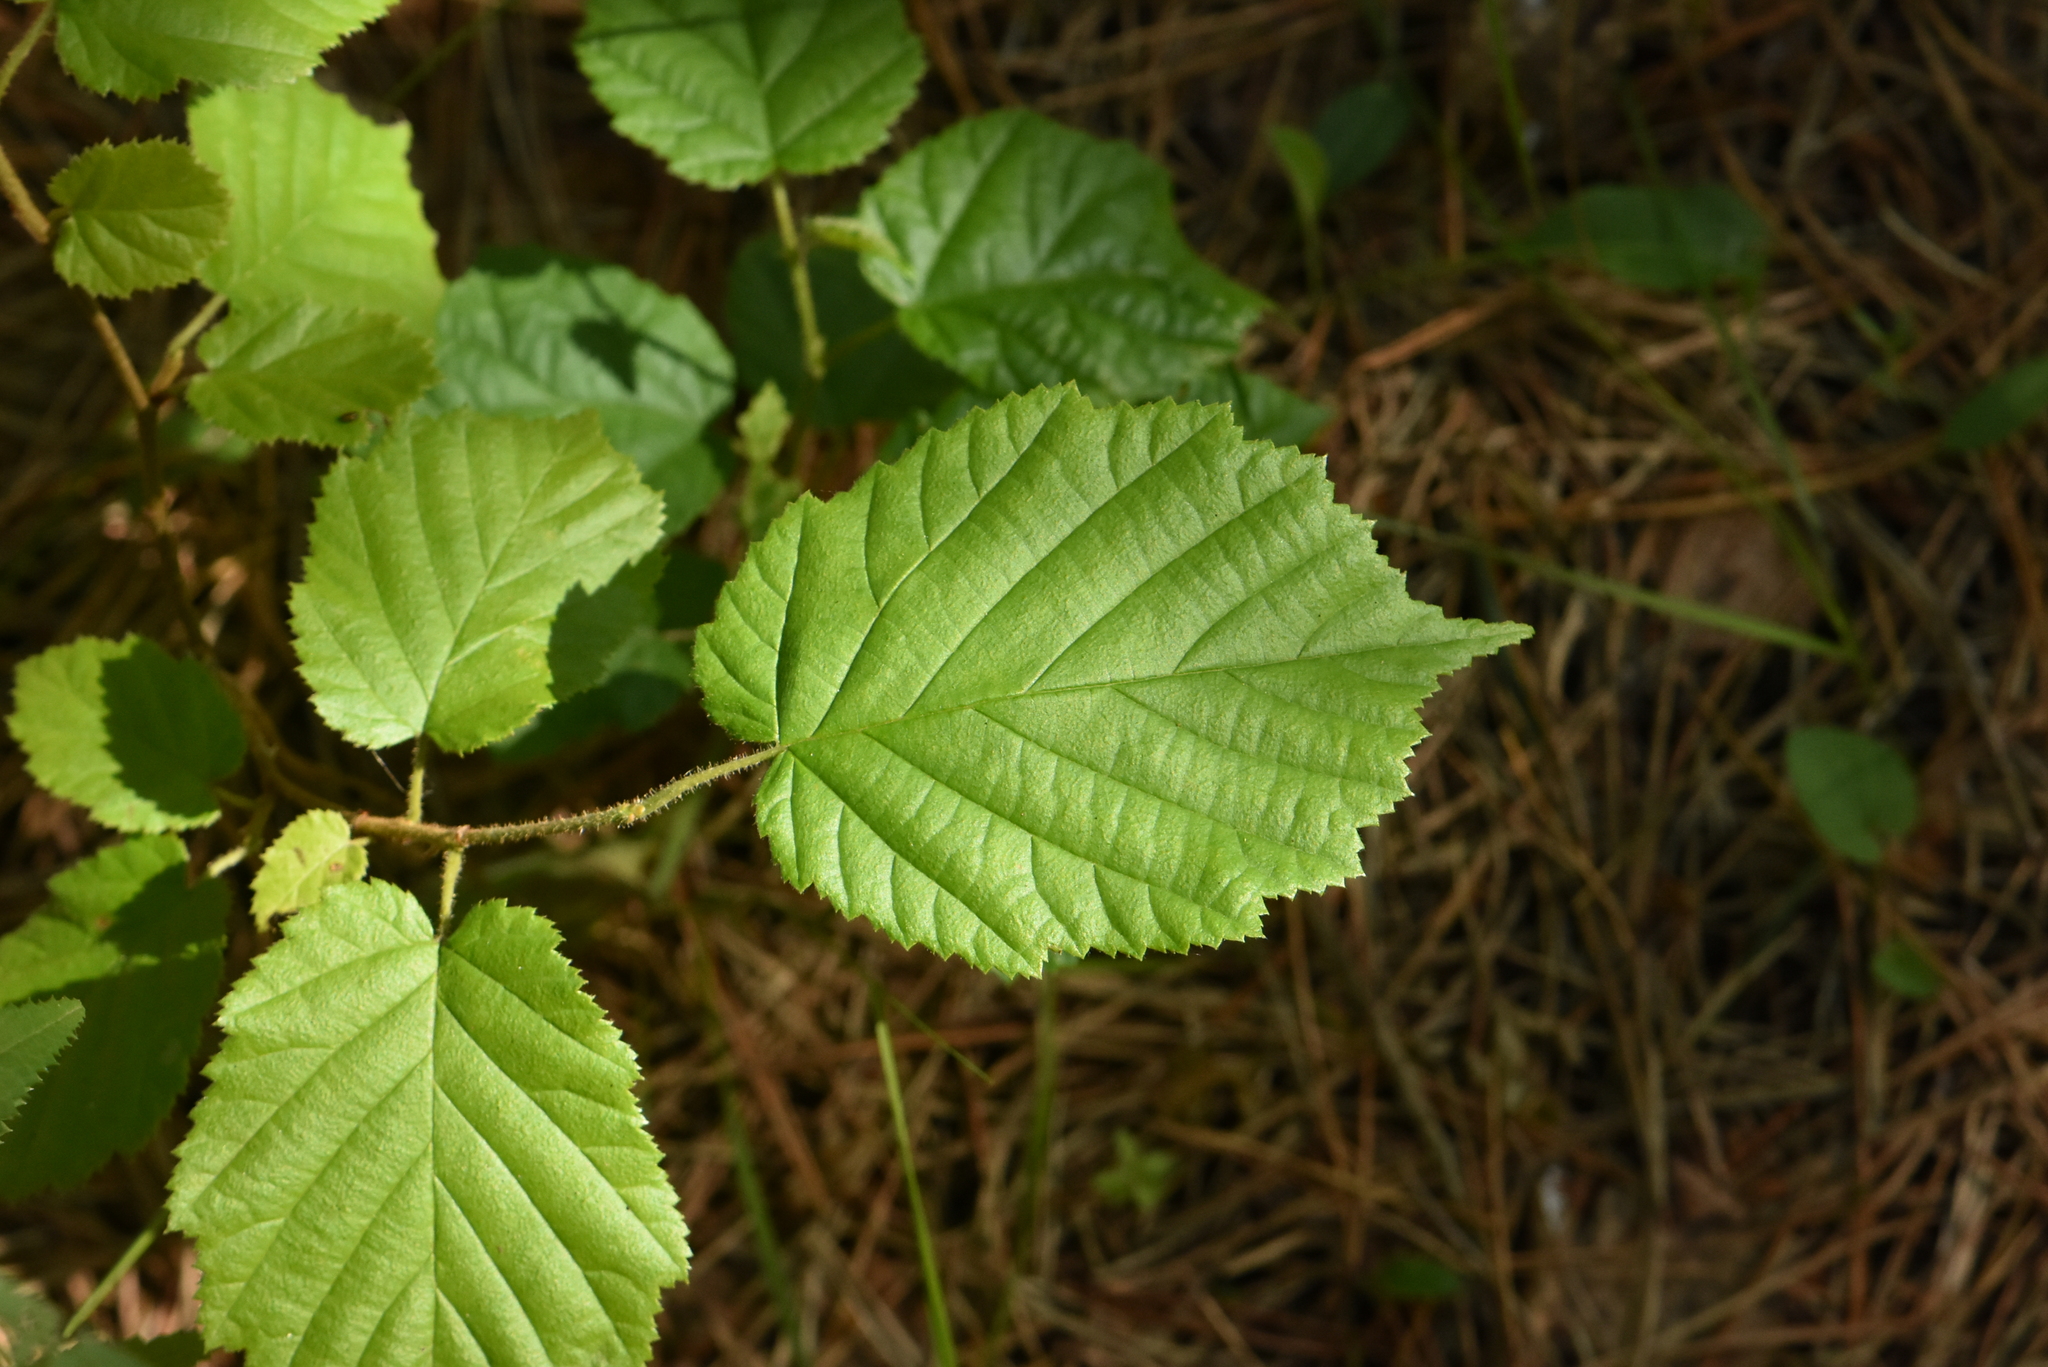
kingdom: Plantae
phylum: Tracheophyta
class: Magnoliopsida
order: Fagales
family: Betulaceae
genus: Corylus
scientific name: Corylus avellana
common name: European hazel
